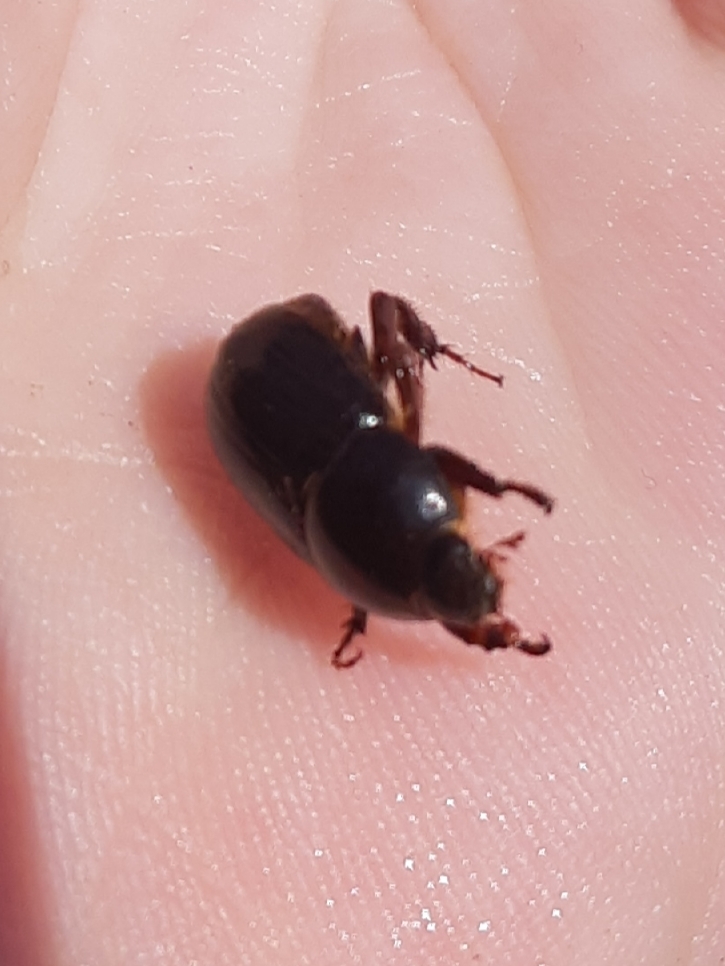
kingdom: Animalia
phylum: Arthropoda
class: Insecta
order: Coleoptera
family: Scarabaeidae
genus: Heteronychus
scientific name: Heteronychus arator
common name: African black beetle
